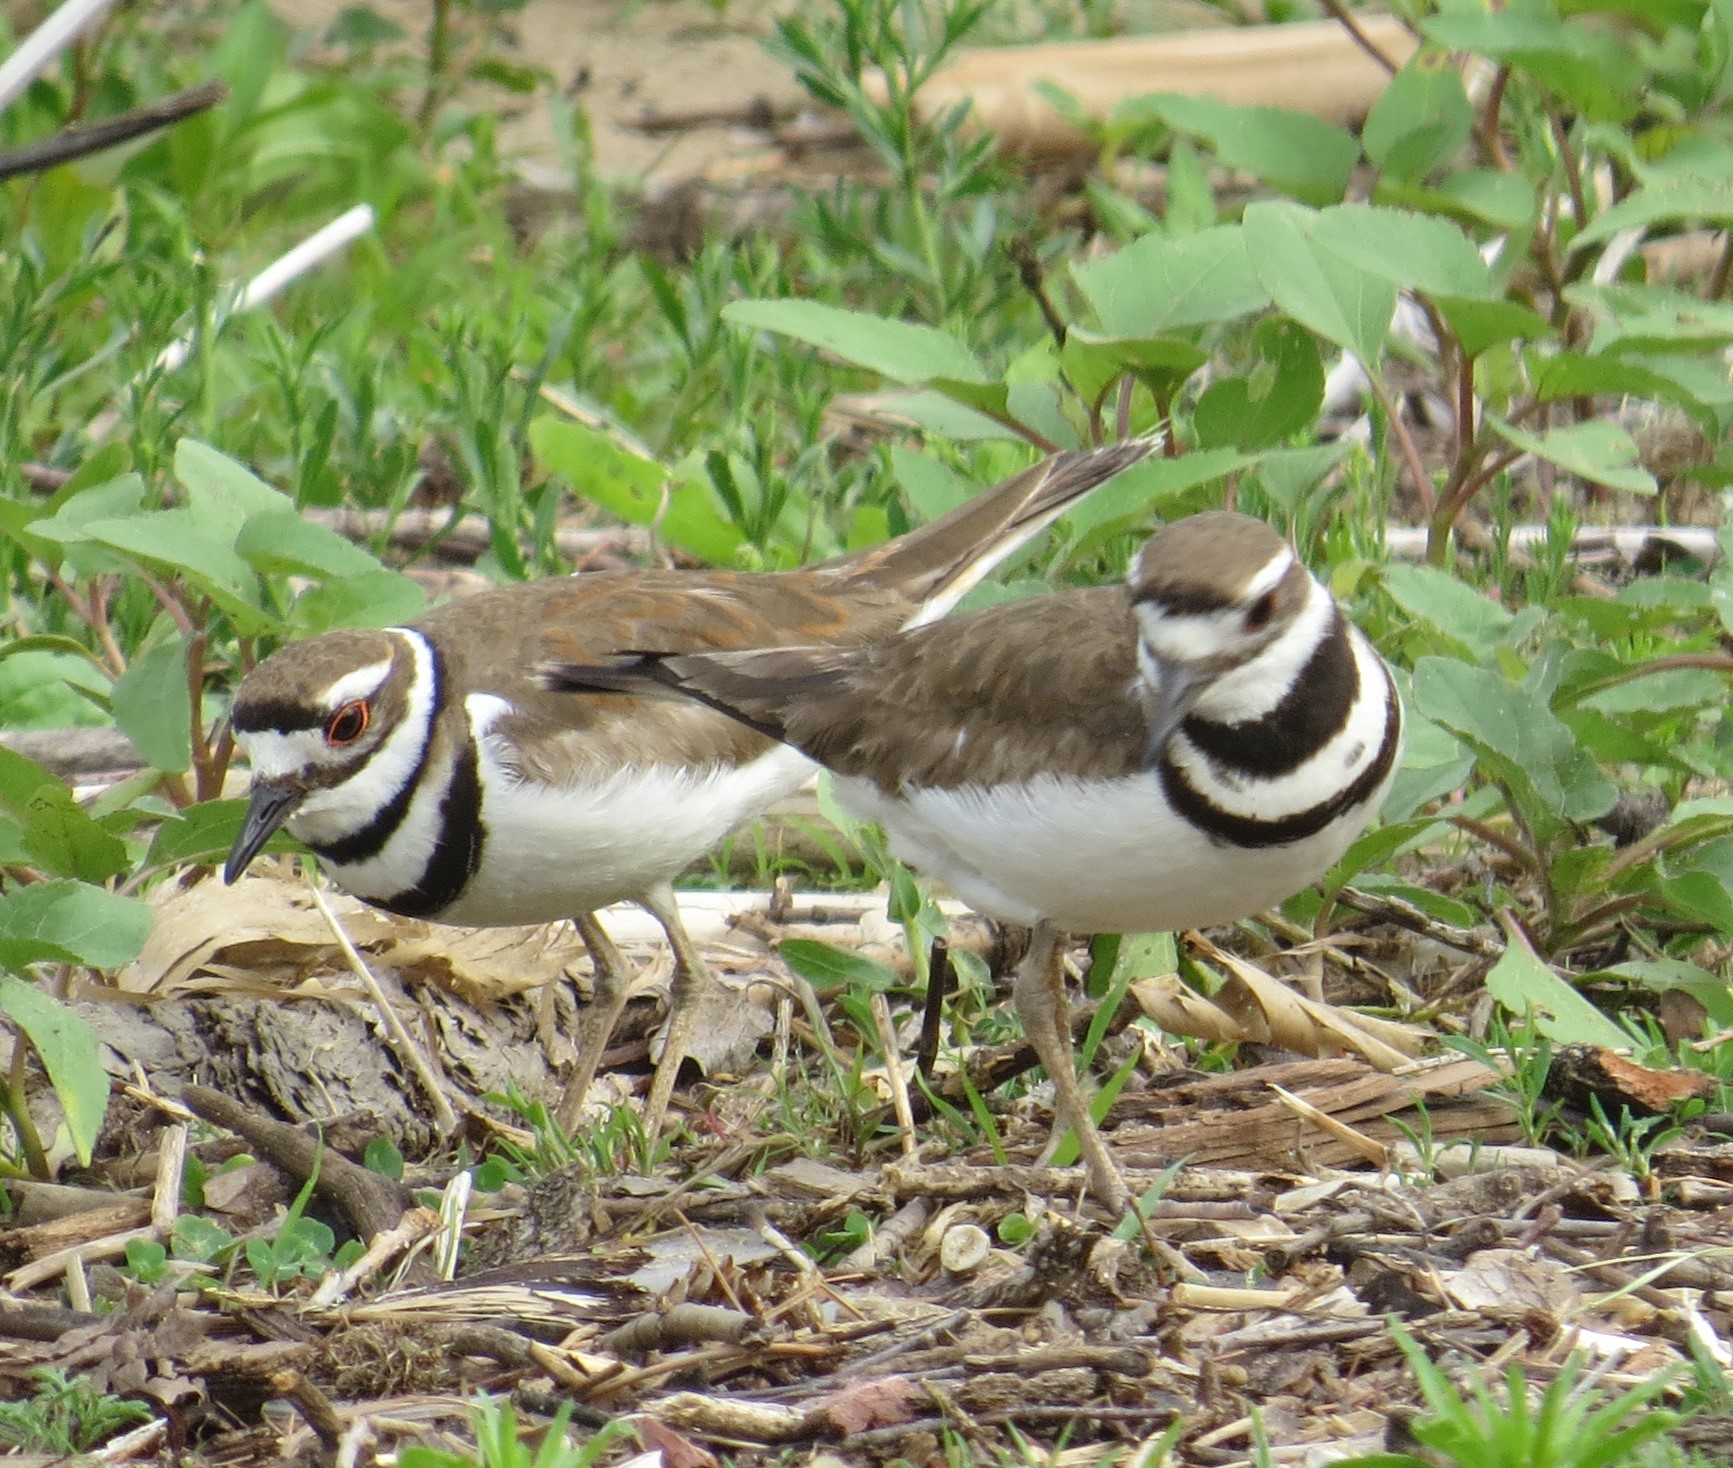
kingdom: Animalia
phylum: Chordata
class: Aves
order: Charadriiformes
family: Charadriidae
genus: Charadrius
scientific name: Charadrius vociferus
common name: Killdeer
